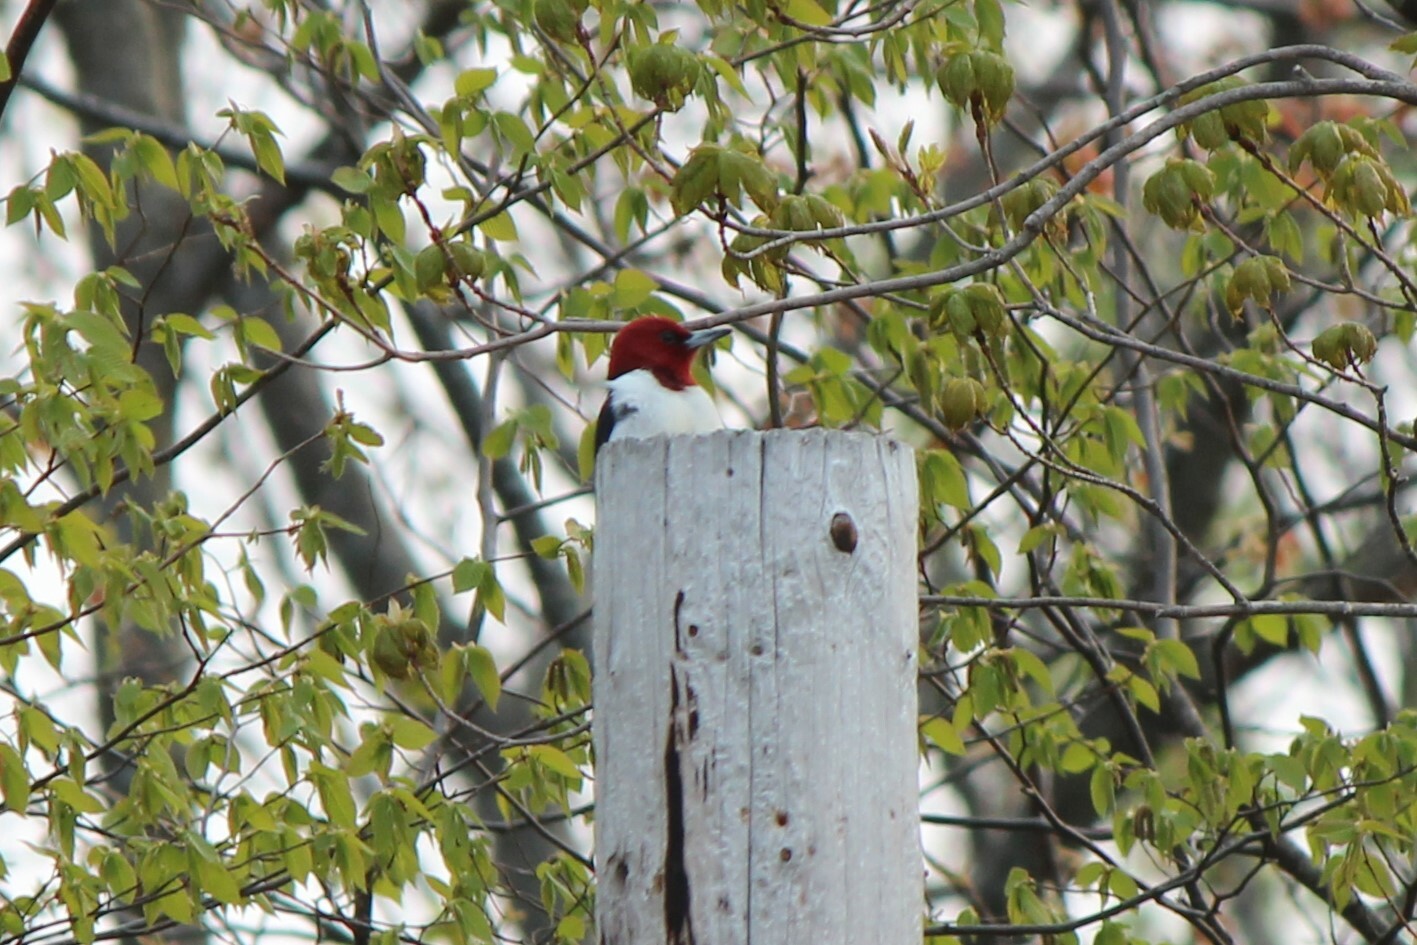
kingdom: Animalia
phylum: Chordata
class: Aves
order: Piciformes
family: Picidae
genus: Melanerpes
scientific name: Melanerpes erythrocephalus
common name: Red-headed woodpecker
